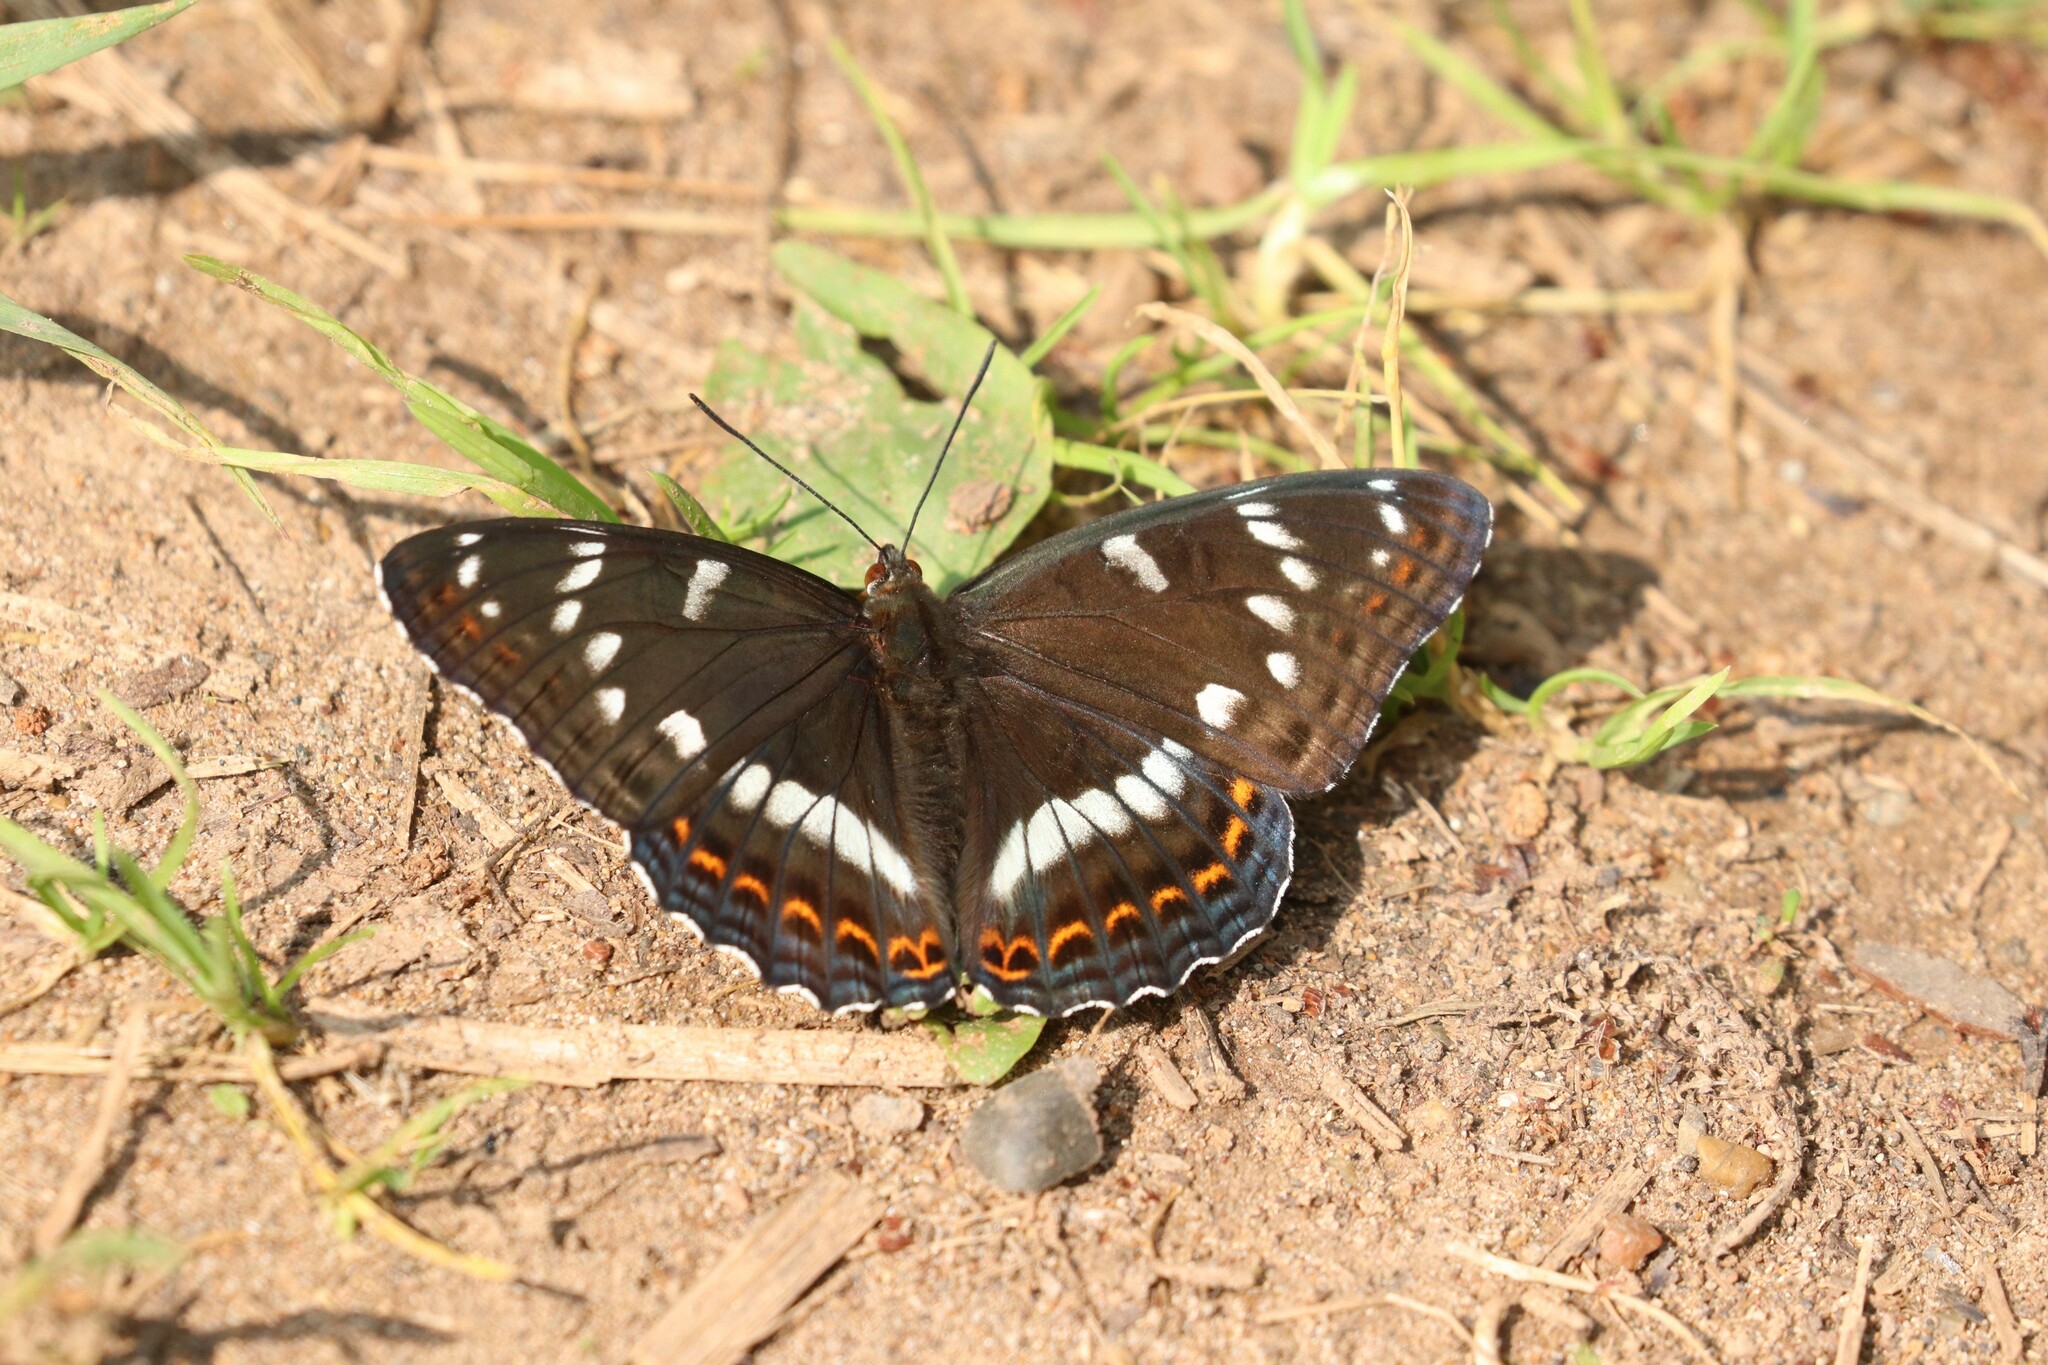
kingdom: Animalia
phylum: Arthropoda
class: Insecta
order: Lepidoptera
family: Nymphalidae
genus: Limenitis
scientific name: Limenitis populi
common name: Poplar admiral
